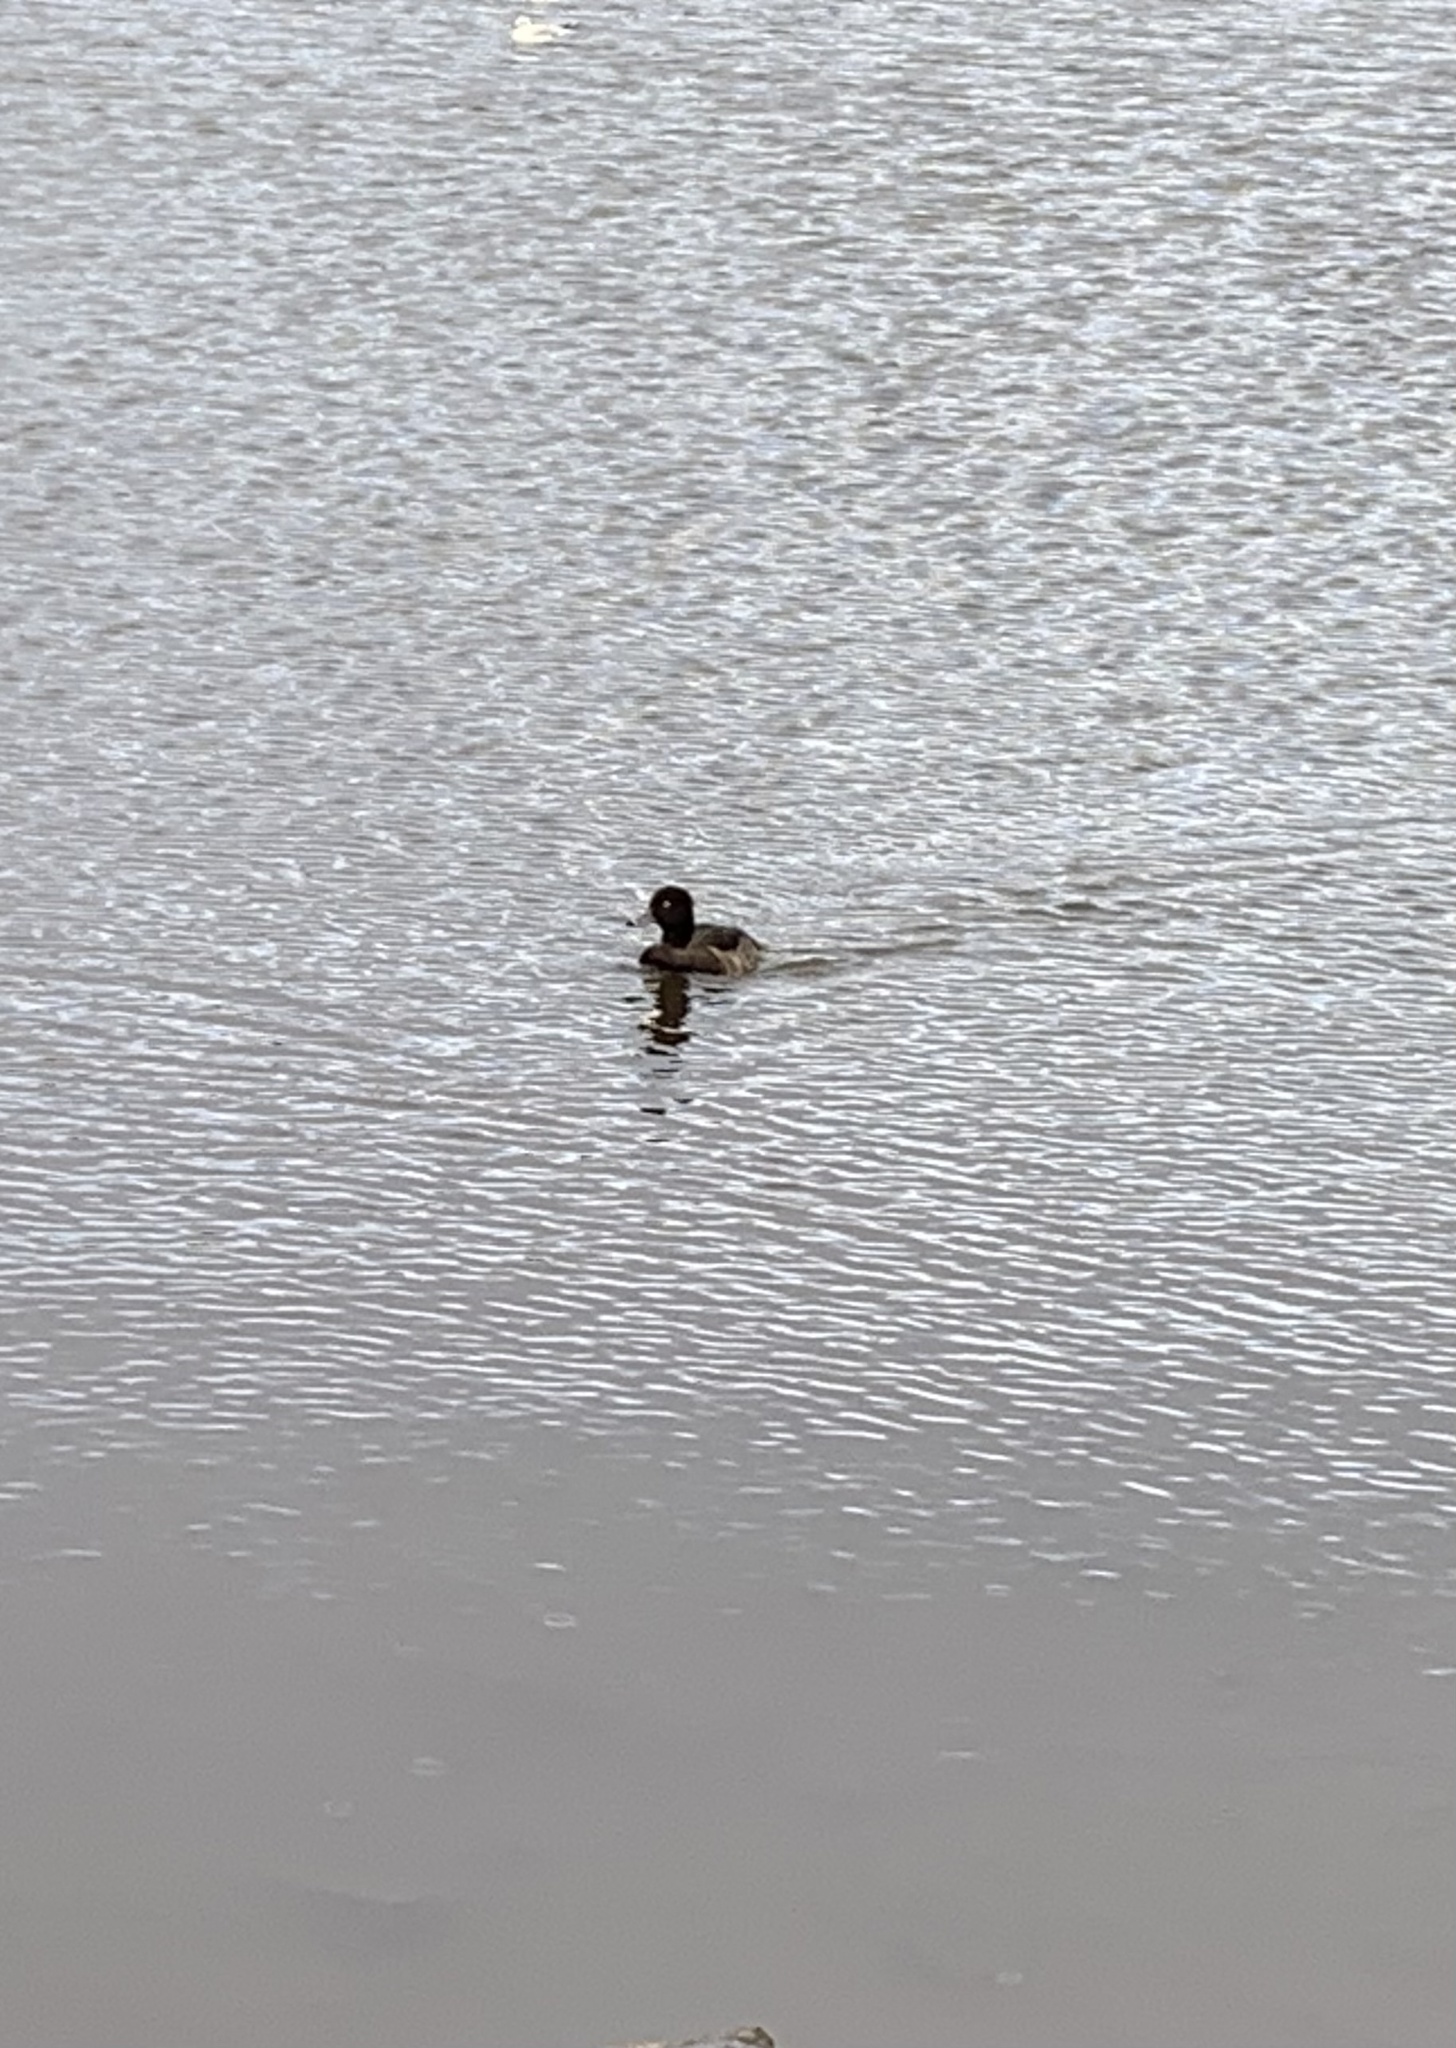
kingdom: Animalia
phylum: Chordata
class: Aves
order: Anseriformes
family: Anatidae
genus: Aythya
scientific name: Aythya fuligula
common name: Tufted duck
